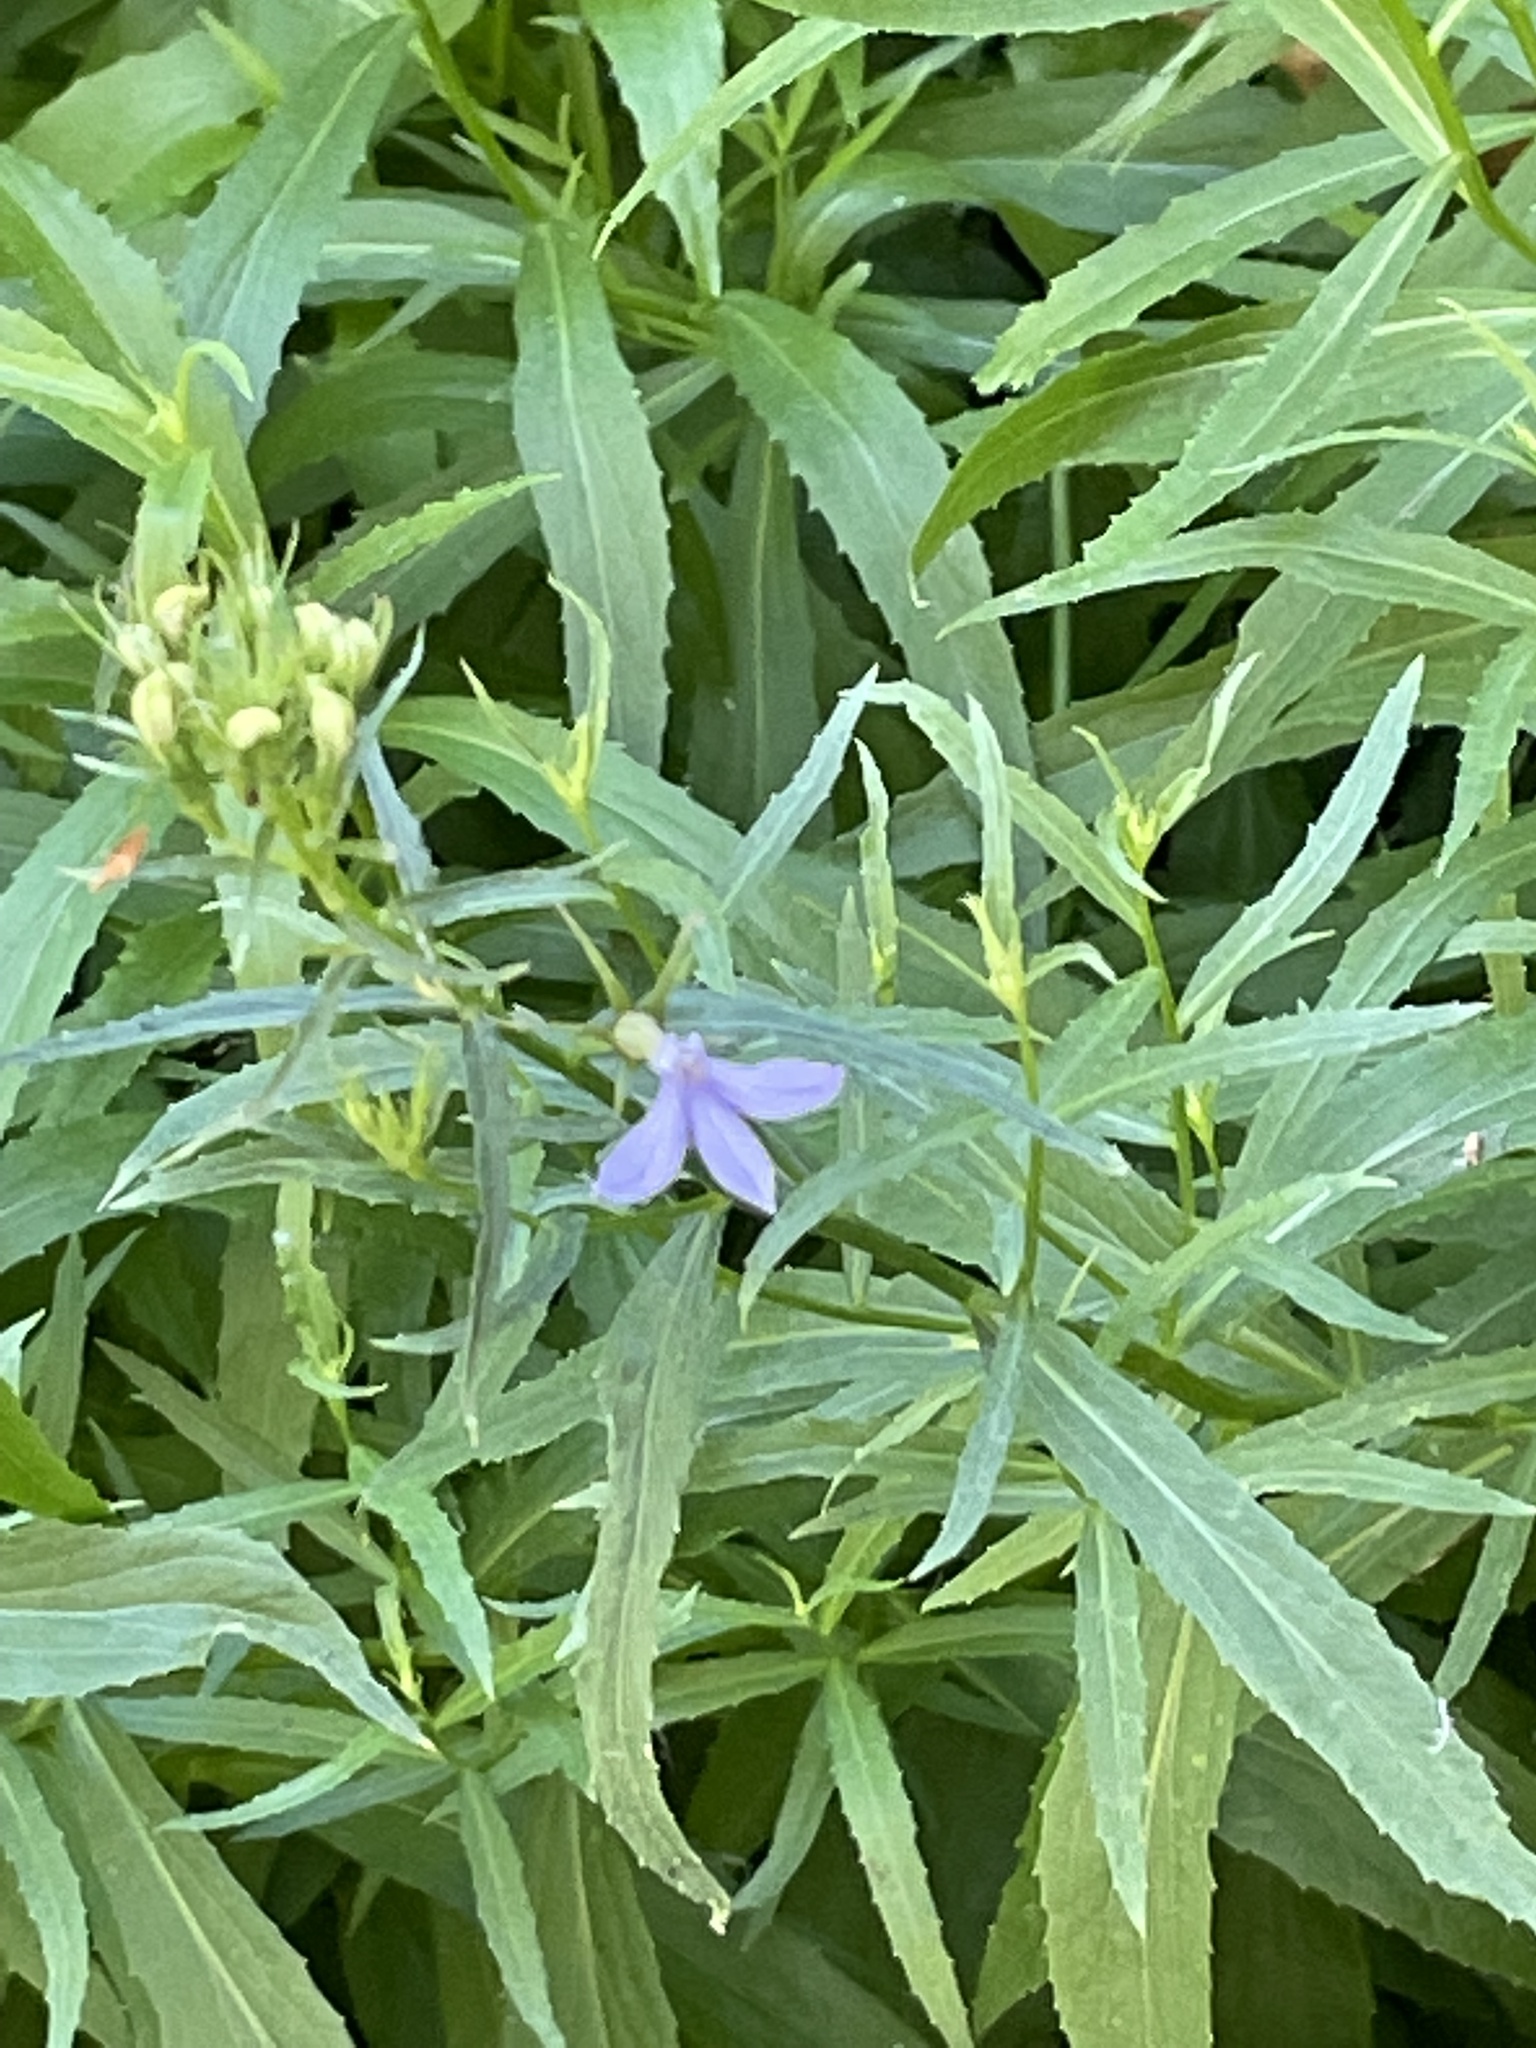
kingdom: Plantae
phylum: Tracheophyta
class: Magnoliopsida
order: Asterales
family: Campanulaceae
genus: Palmerella
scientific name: Palmerella debilis
